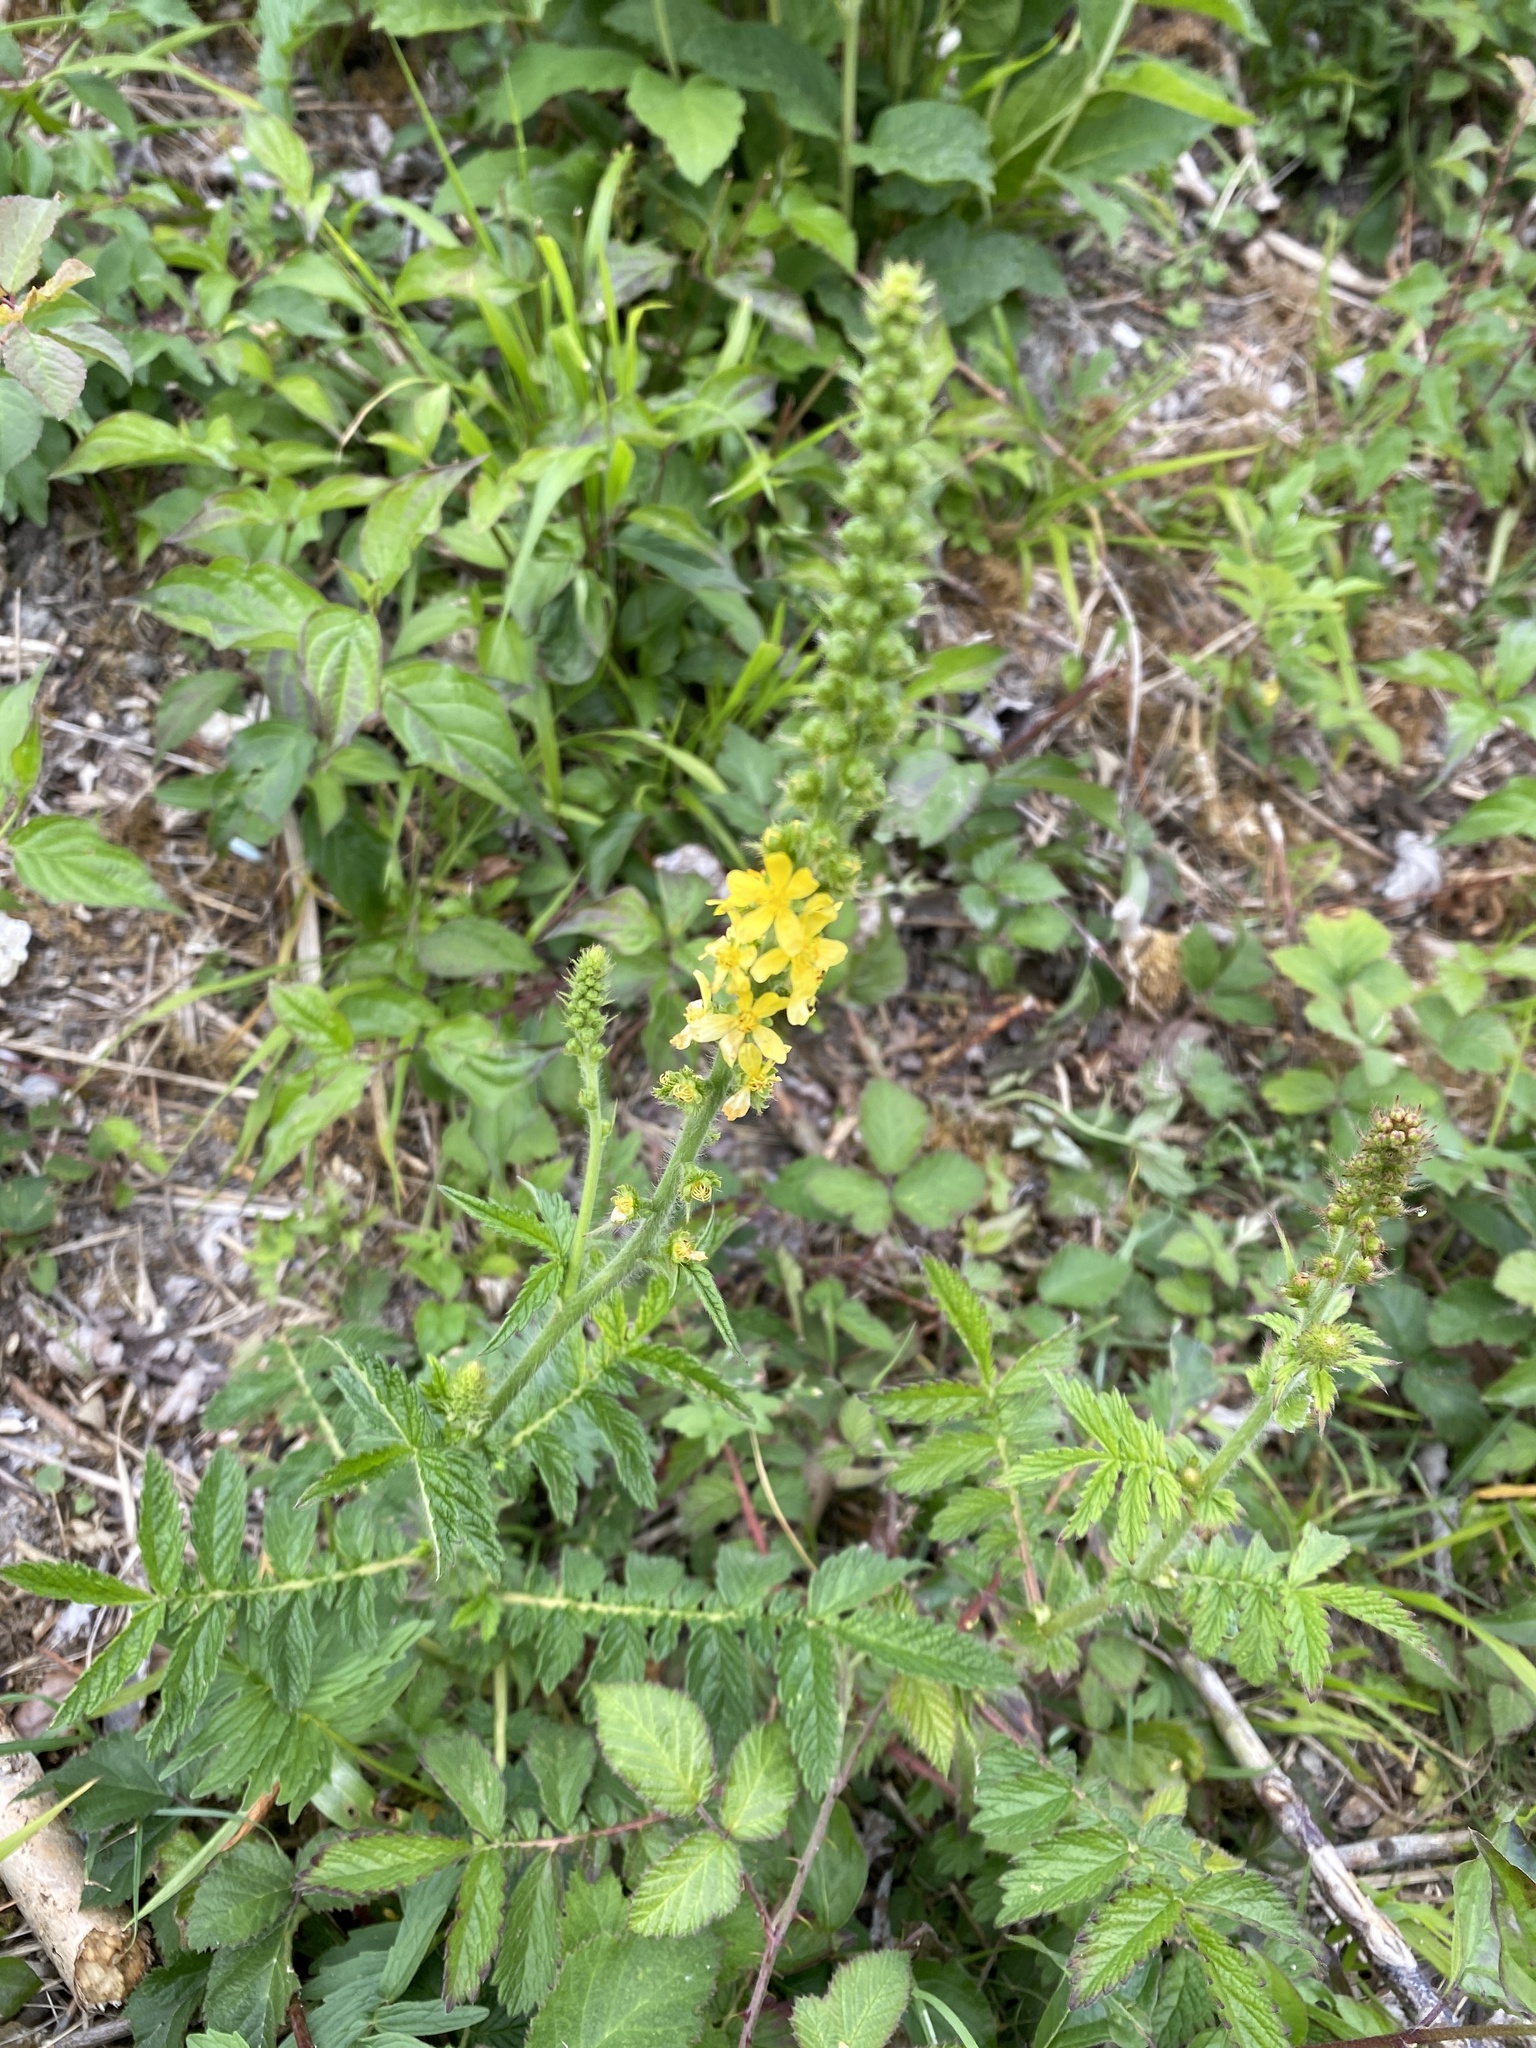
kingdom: Plantae
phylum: Tracheophyta
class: Magnoliopsida
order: Rosales
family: Rosaceae
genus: Agrimonia
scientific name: Agrimonia eupatoria
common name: Agrimony
